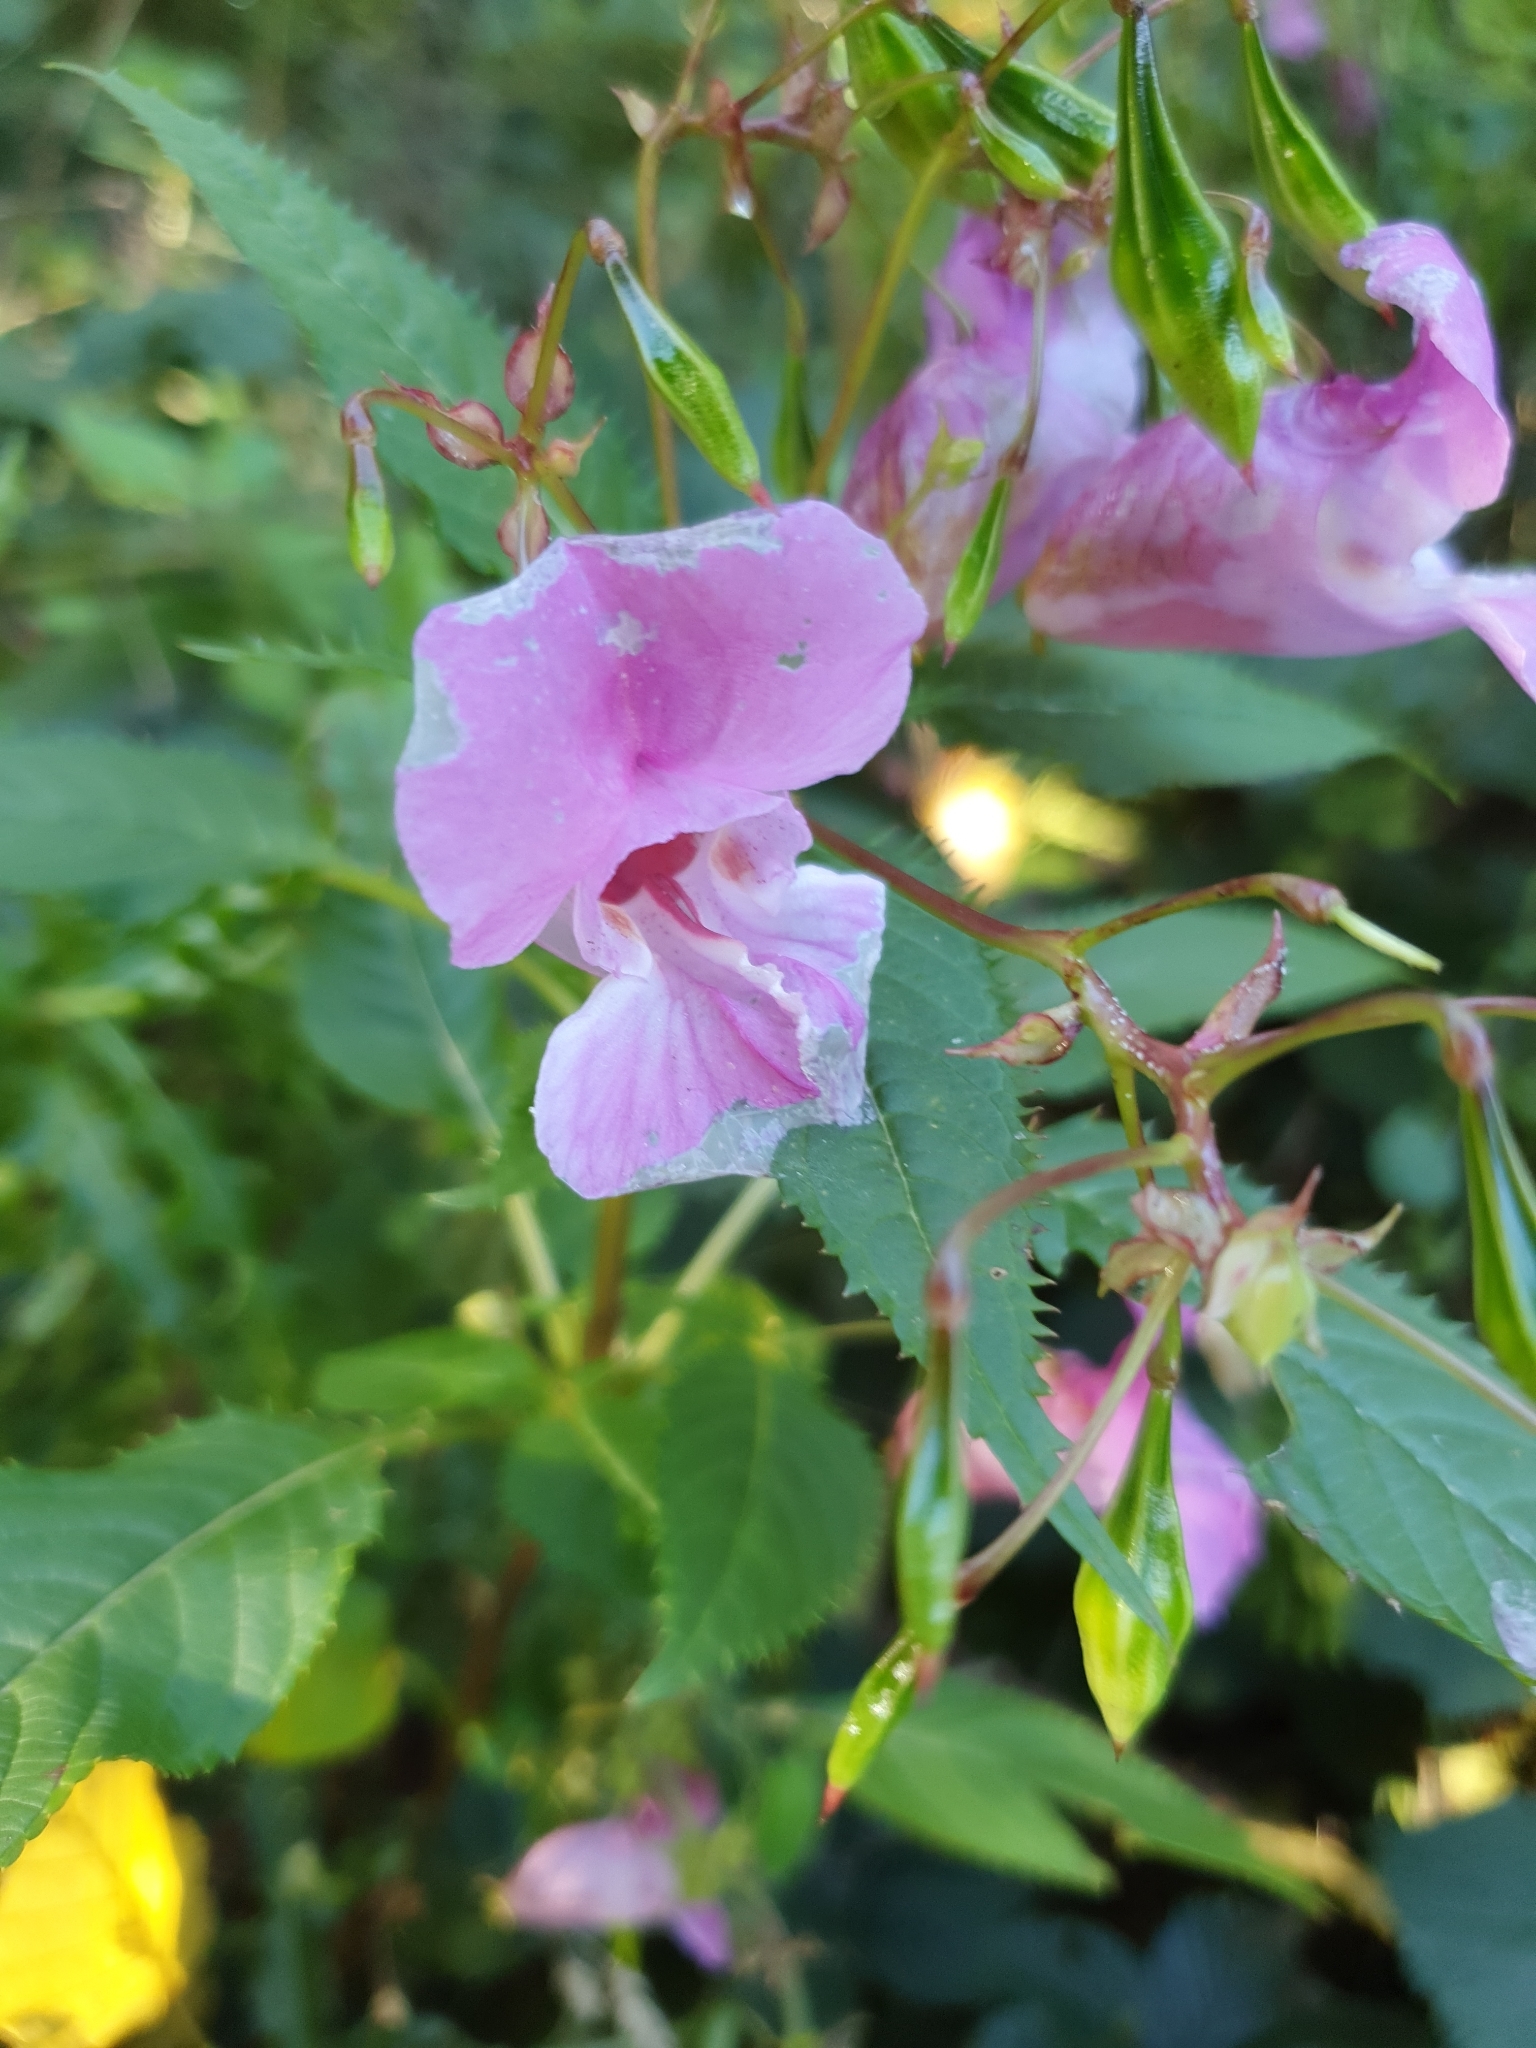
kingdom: Plantae
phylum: Tracheophyta
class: Magnoliopsida
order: Ericales
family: Balsaminaceae
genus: Impatiens
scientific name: Impatiens glandulifera
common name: Himalayan balsam
